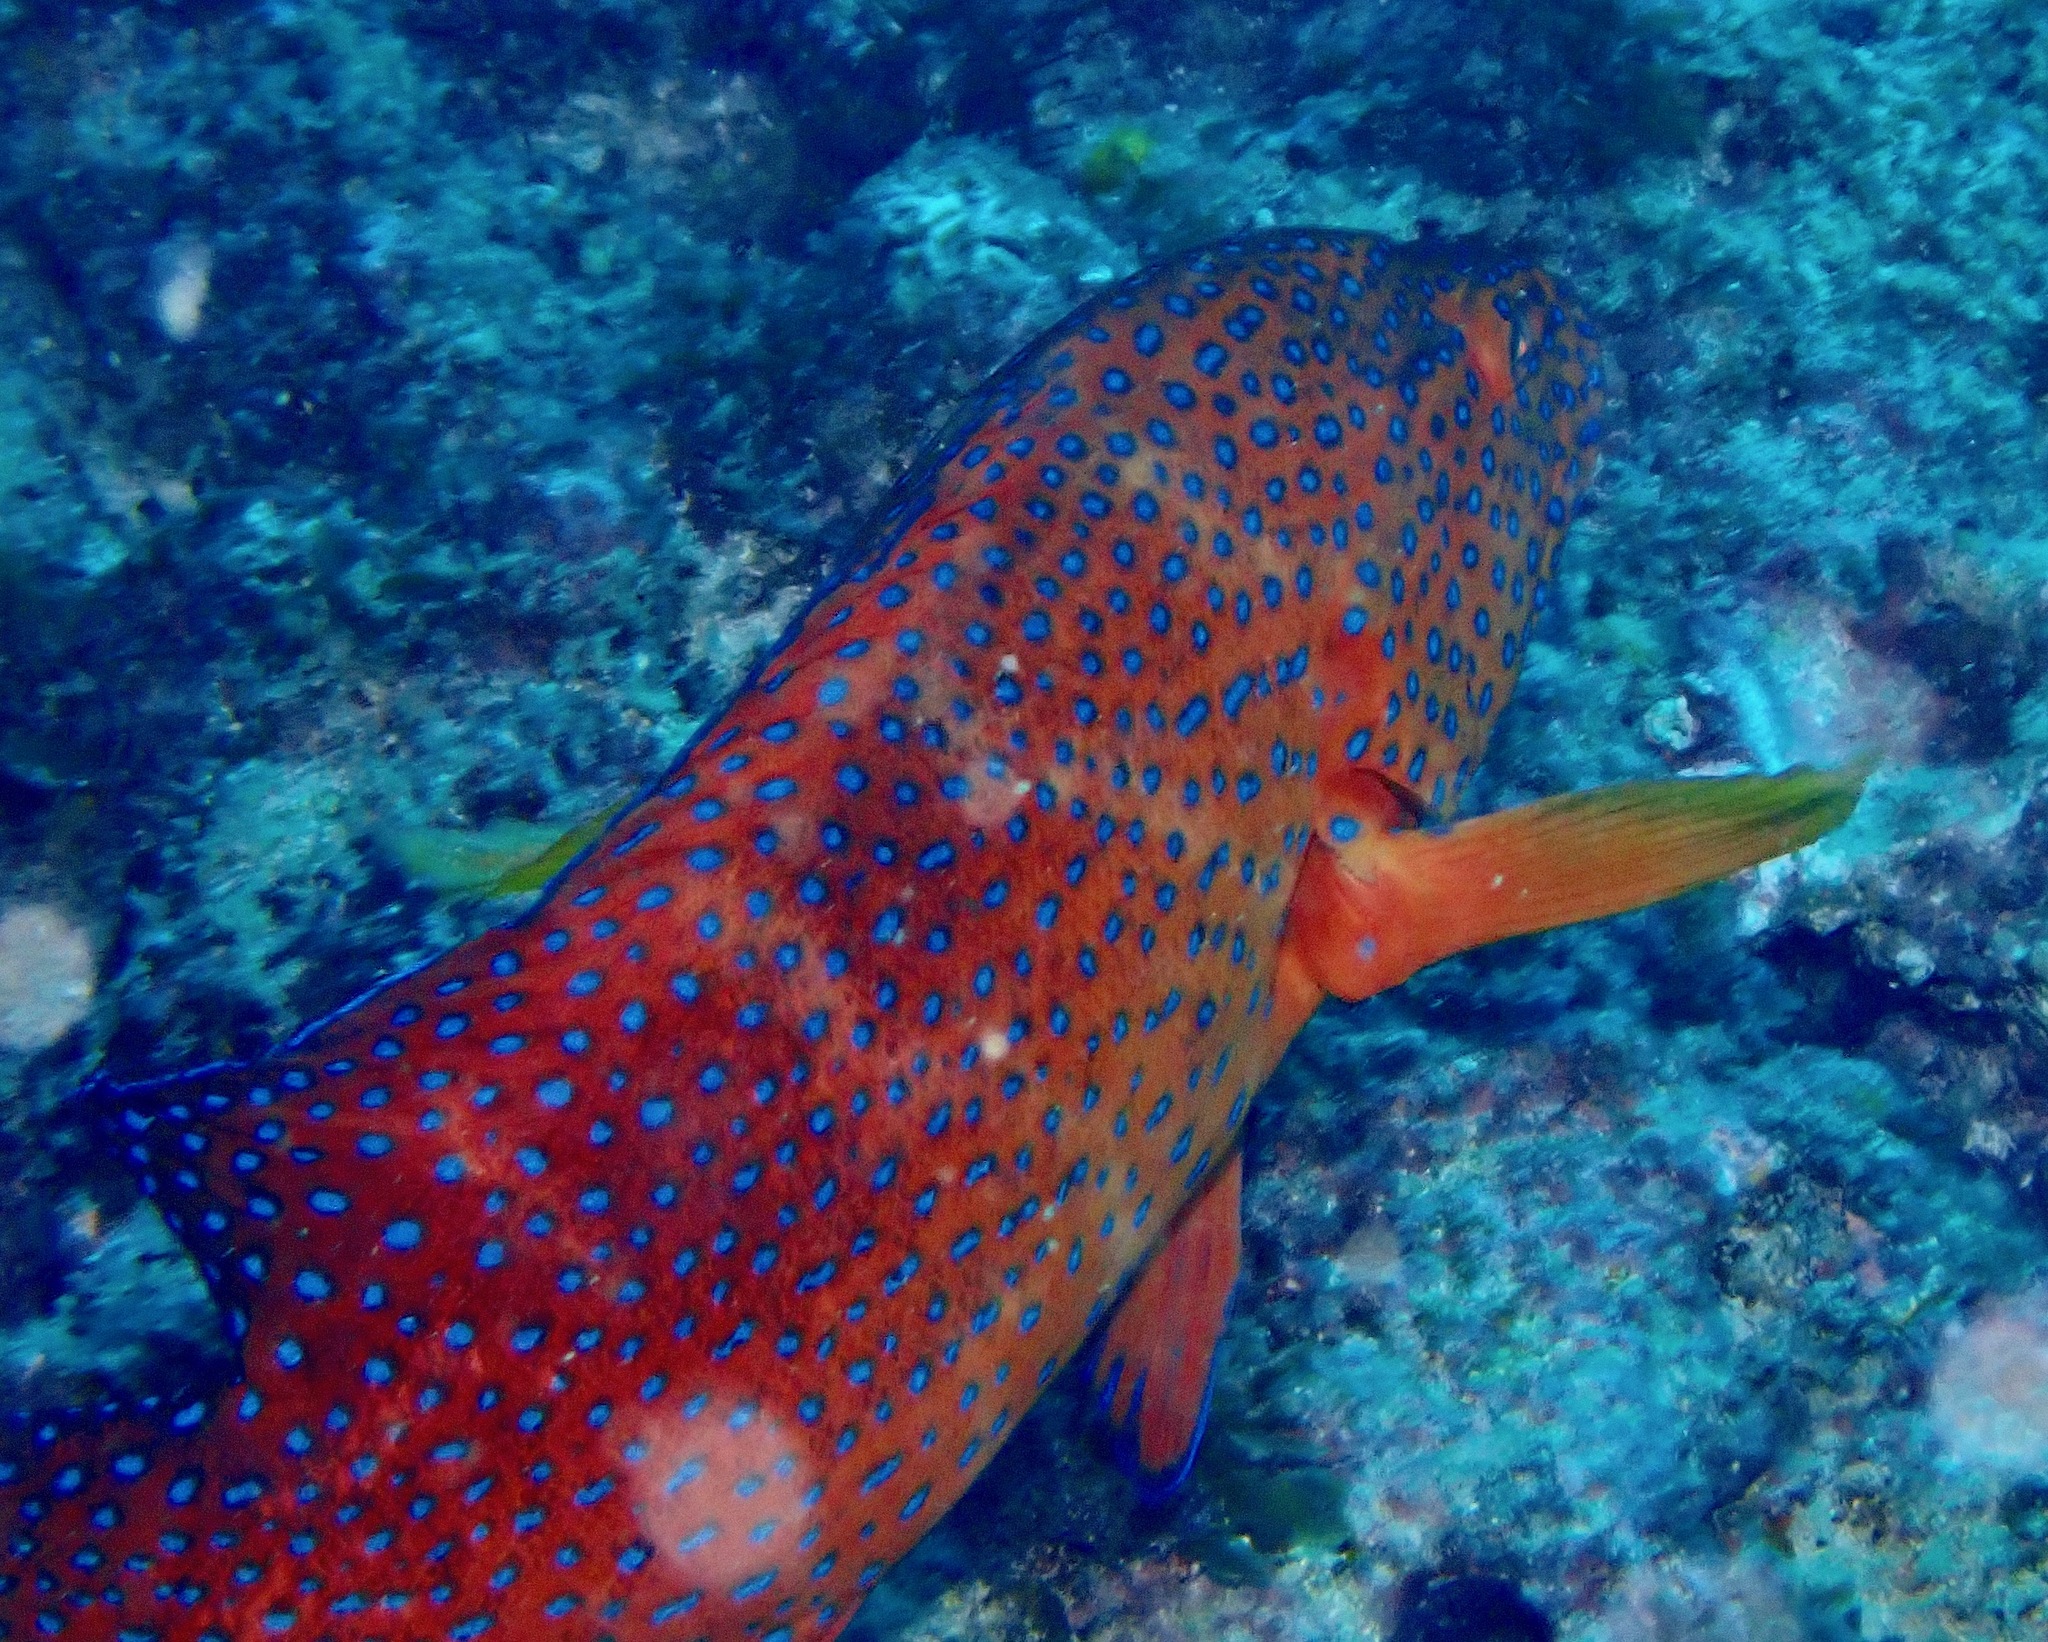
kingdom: Animalia
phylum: Chordata
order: Perciformes
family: Serranidae
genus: Cephalopholis
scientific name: Cephalopholis miniata
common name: Coral hind
